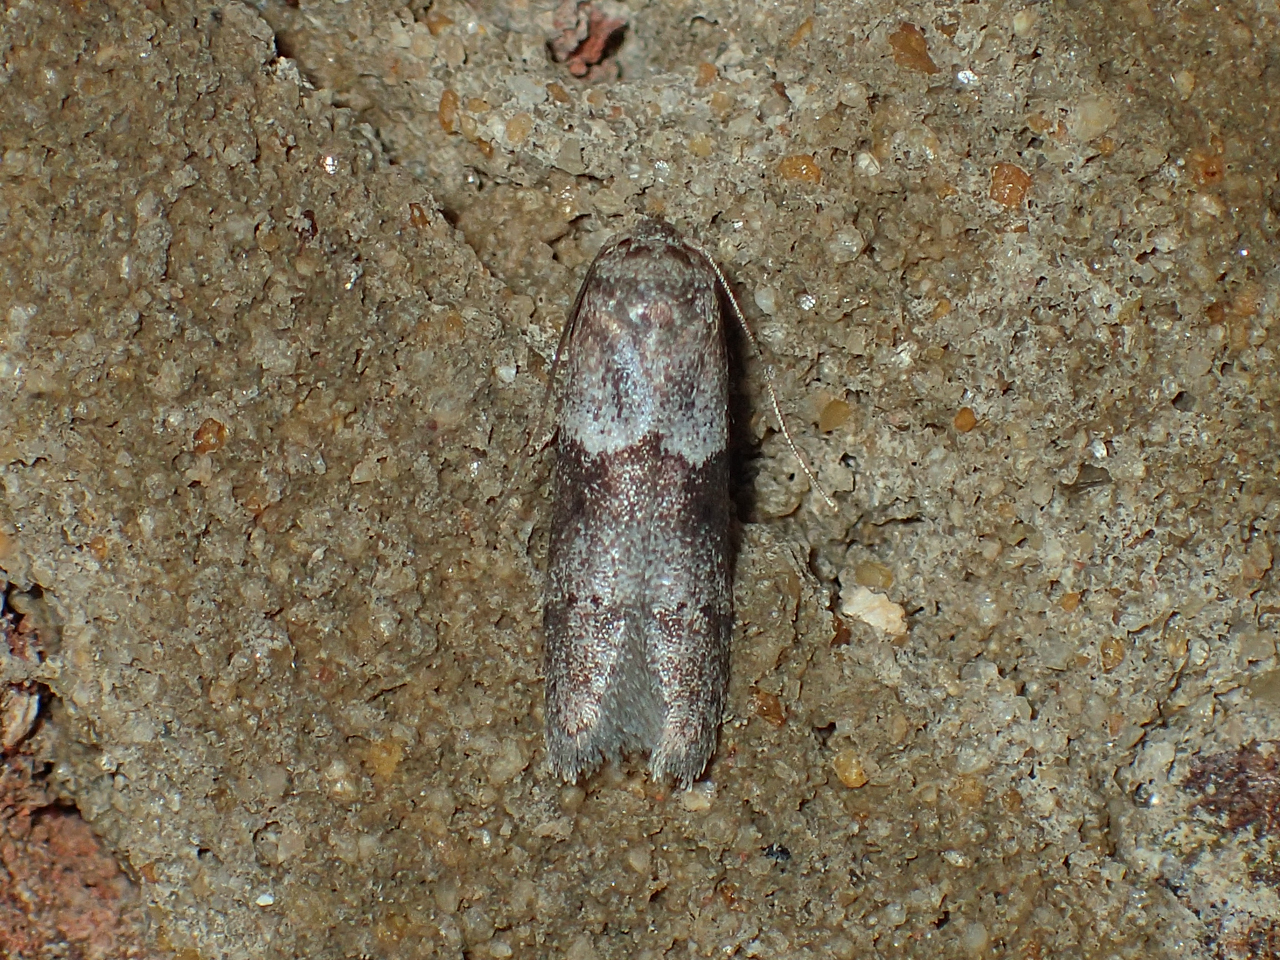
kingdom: Animalia
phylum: Arthropoda
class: Insecta
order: Lepidoptera
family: Blastobasidae
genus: Blastobasis
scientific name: Blastobasis glandulella
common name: Acorn moth
